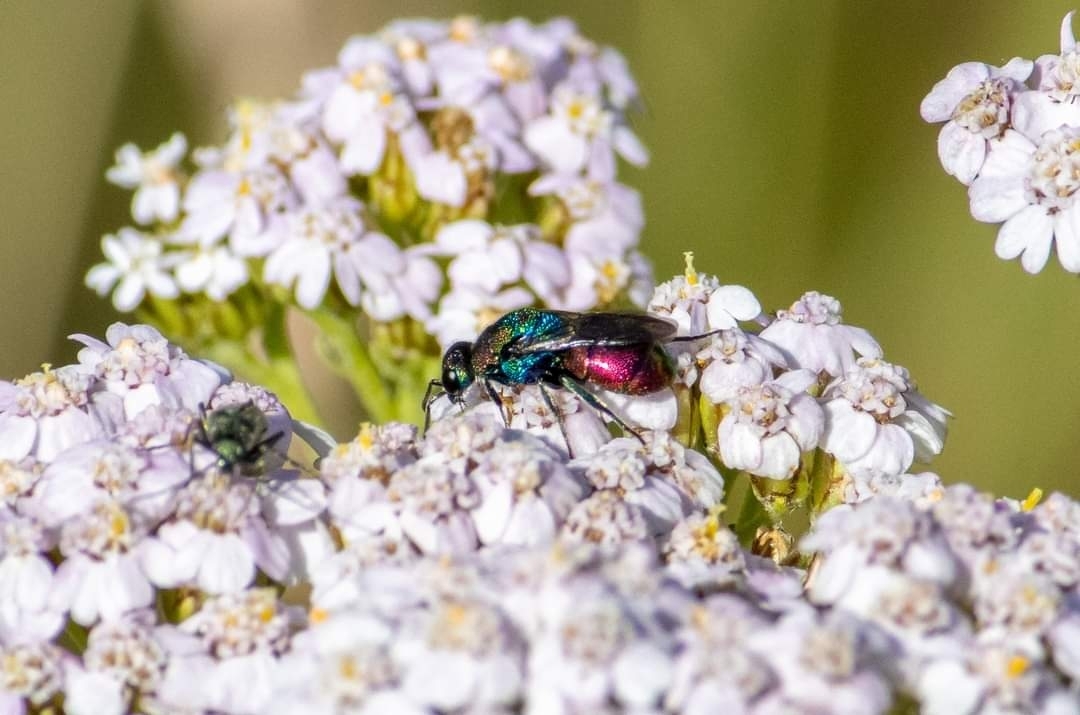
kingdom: Animalia
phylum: Arthropoda
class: Insecta
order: Hymenoptera
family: Chrysididae
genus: Hedychrum
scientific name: Hedychrum rutilans
